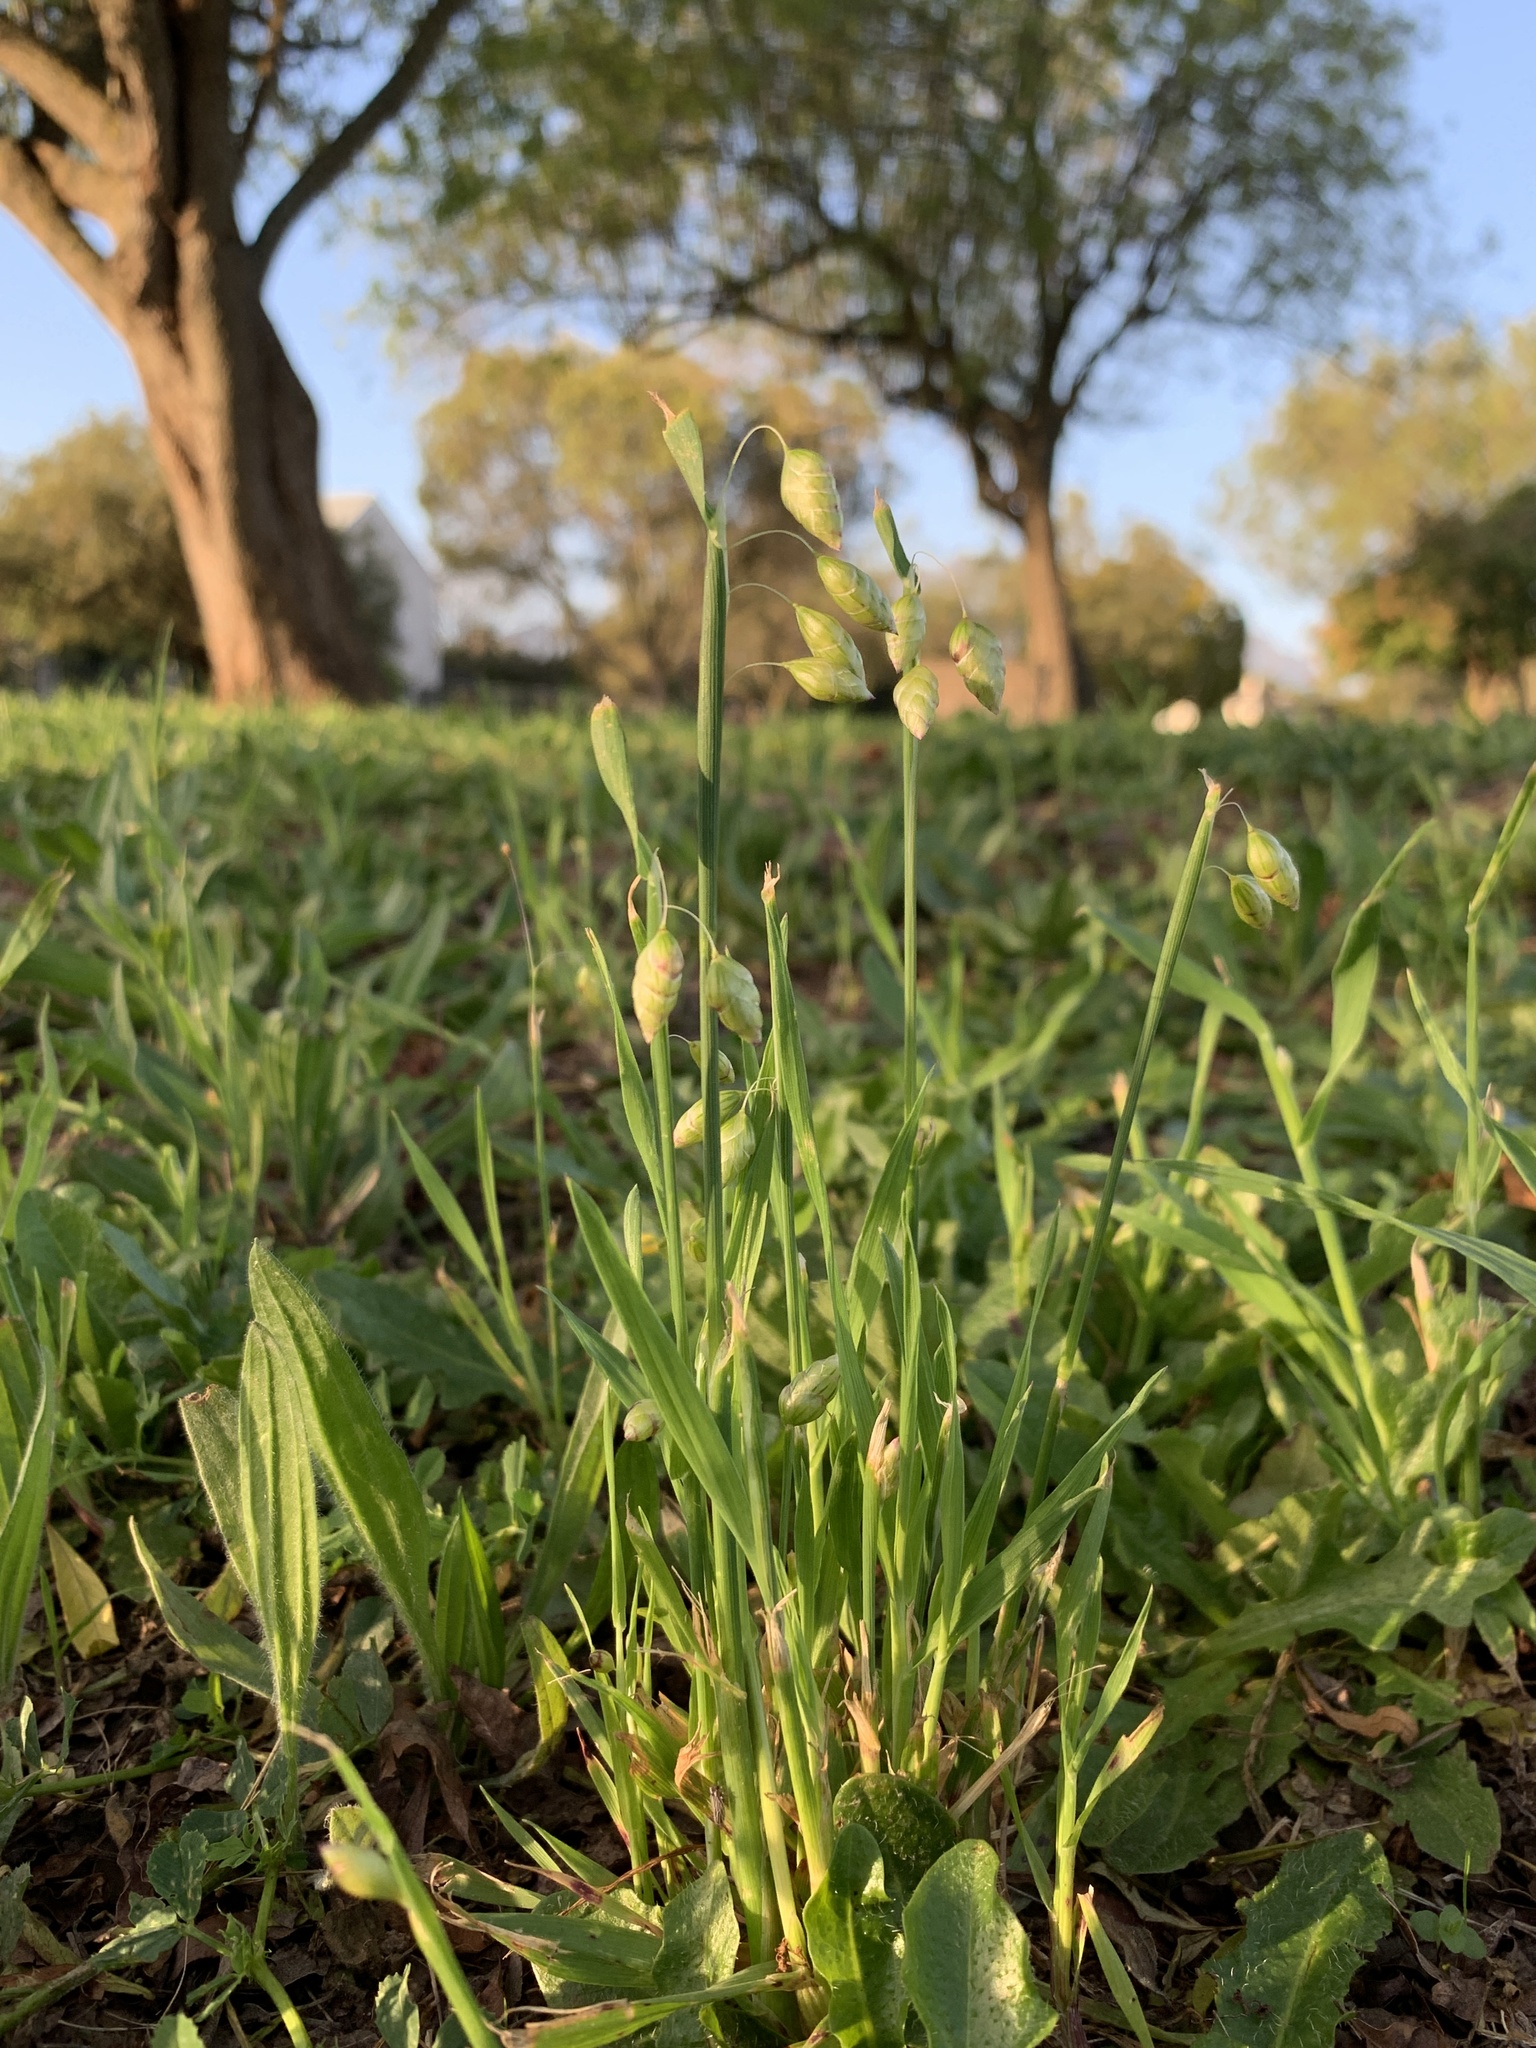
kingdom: Plantae
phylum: Tracheophyta
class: Liliopsida
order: Poales
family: Poaceae
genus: Briza
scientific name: Briza maxima
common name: Big quakinggrass
